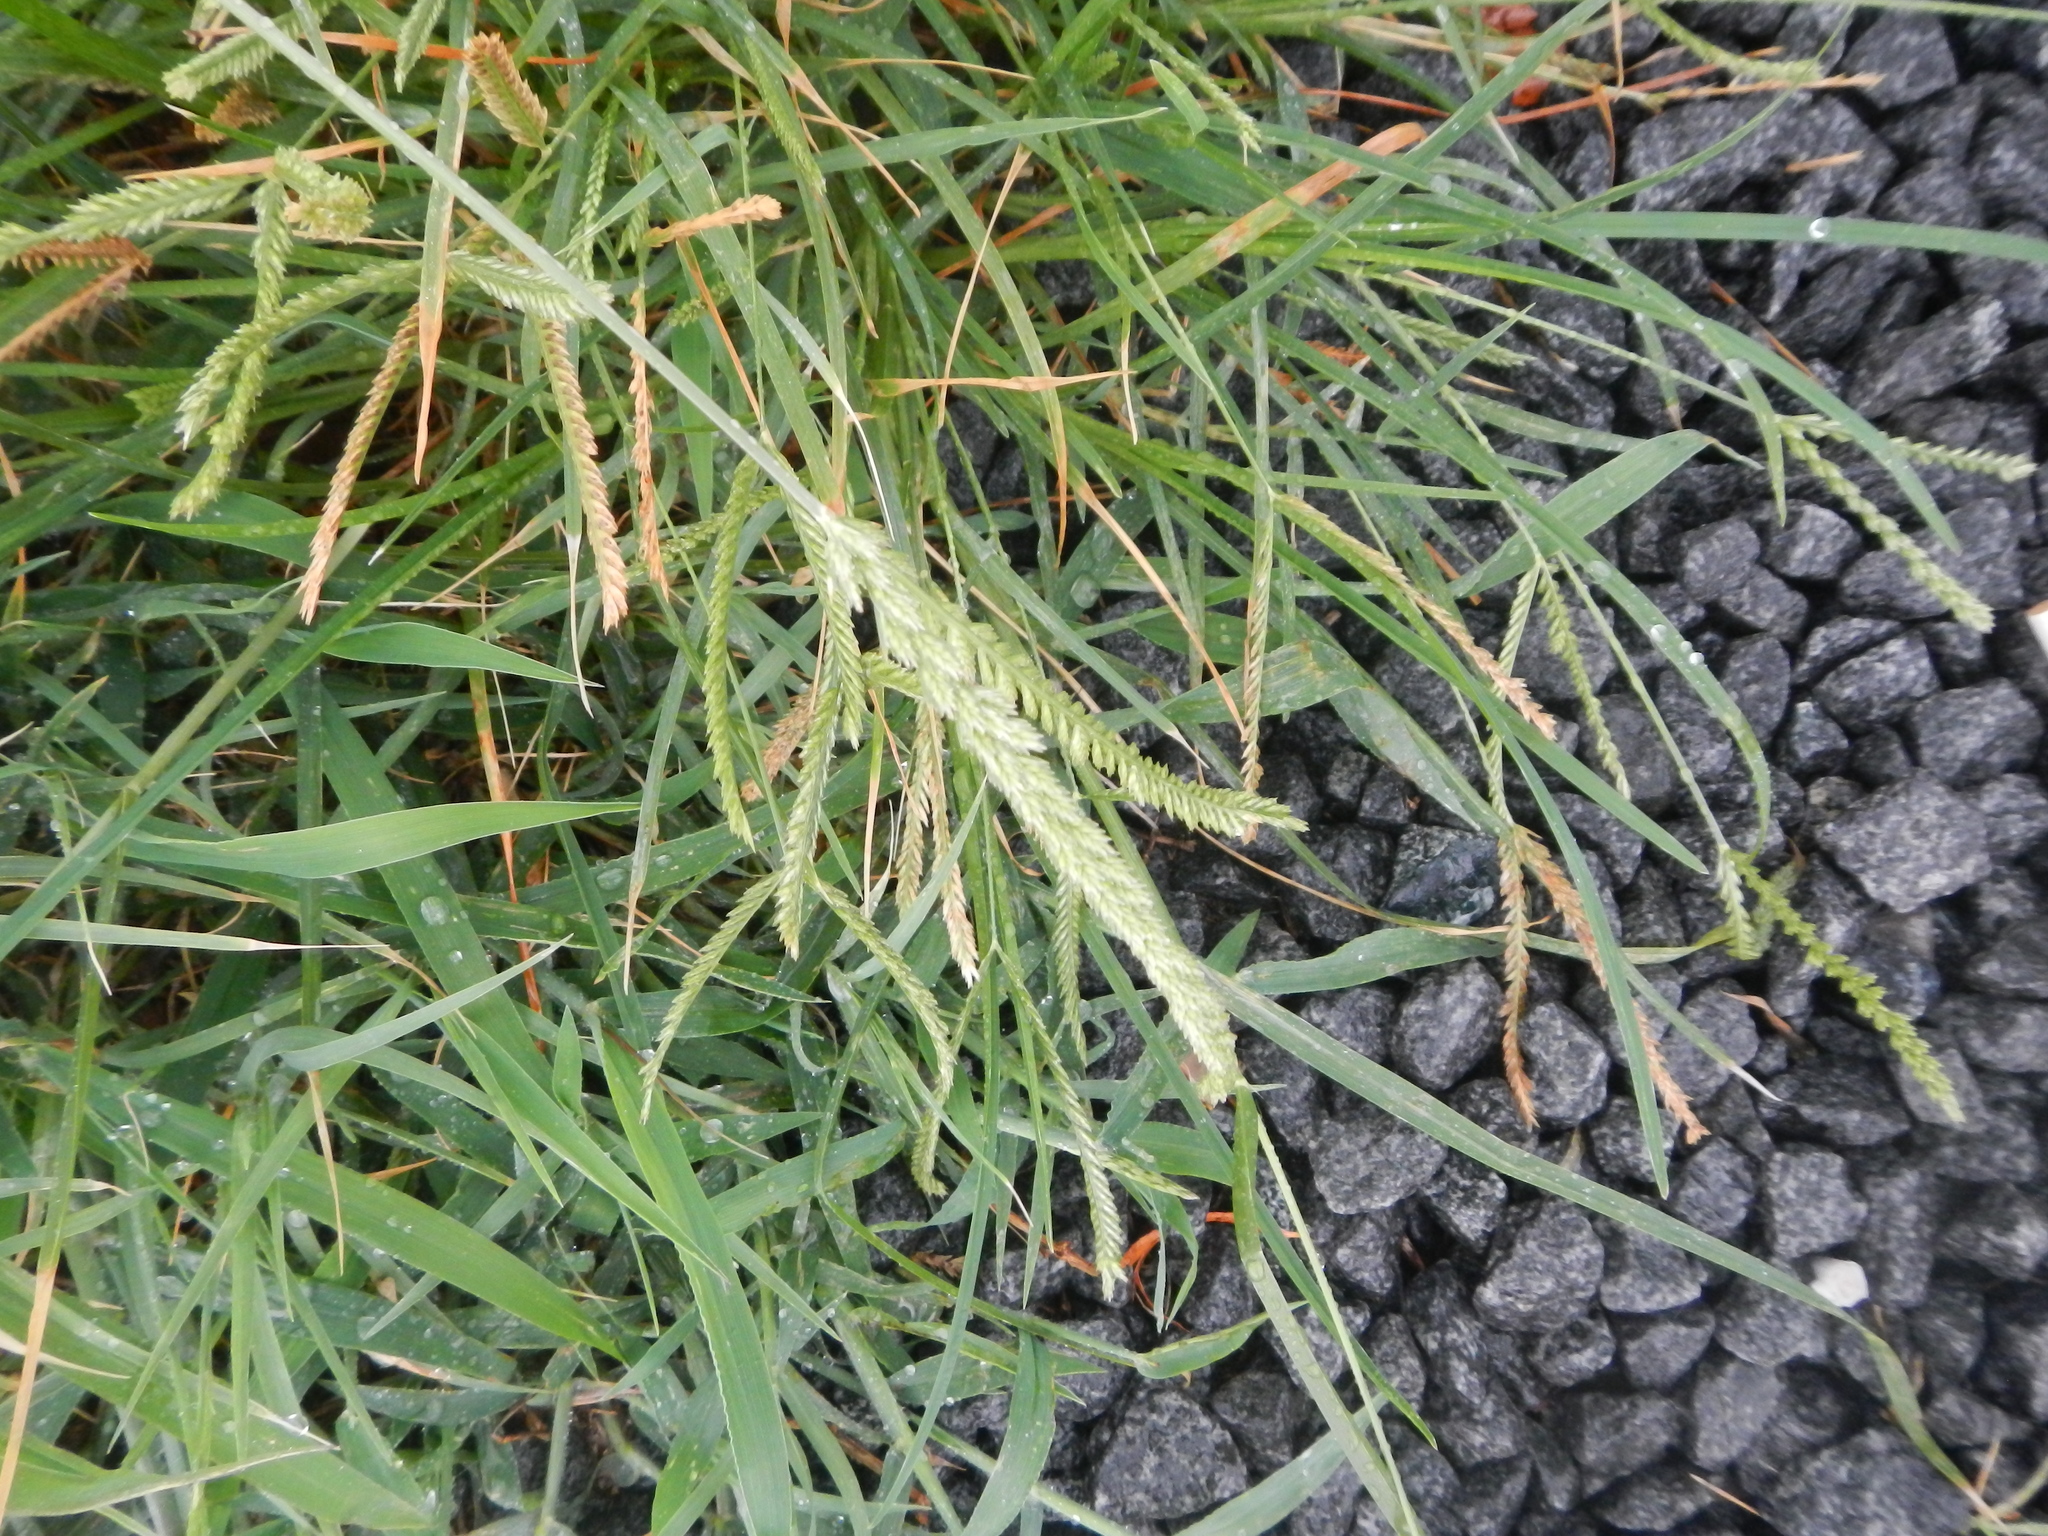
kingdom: Plantae
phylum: Tracheophyta
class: Liliopsida
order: Poales
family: Poaceae
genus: Eleusine
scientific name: Eleusine indica
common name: Yard-grass
